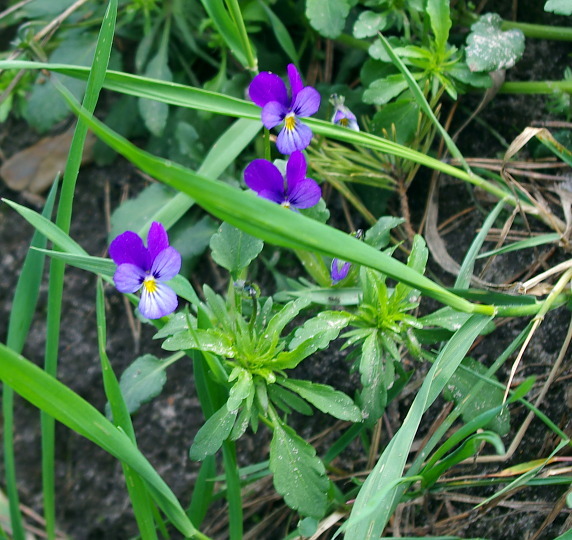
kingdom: Plantae
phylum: Tracheophyta
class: Magnoliopsida
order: Malpighiales
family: Violaceae
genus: Viola
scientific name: Viola tricolor
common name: Pansy
